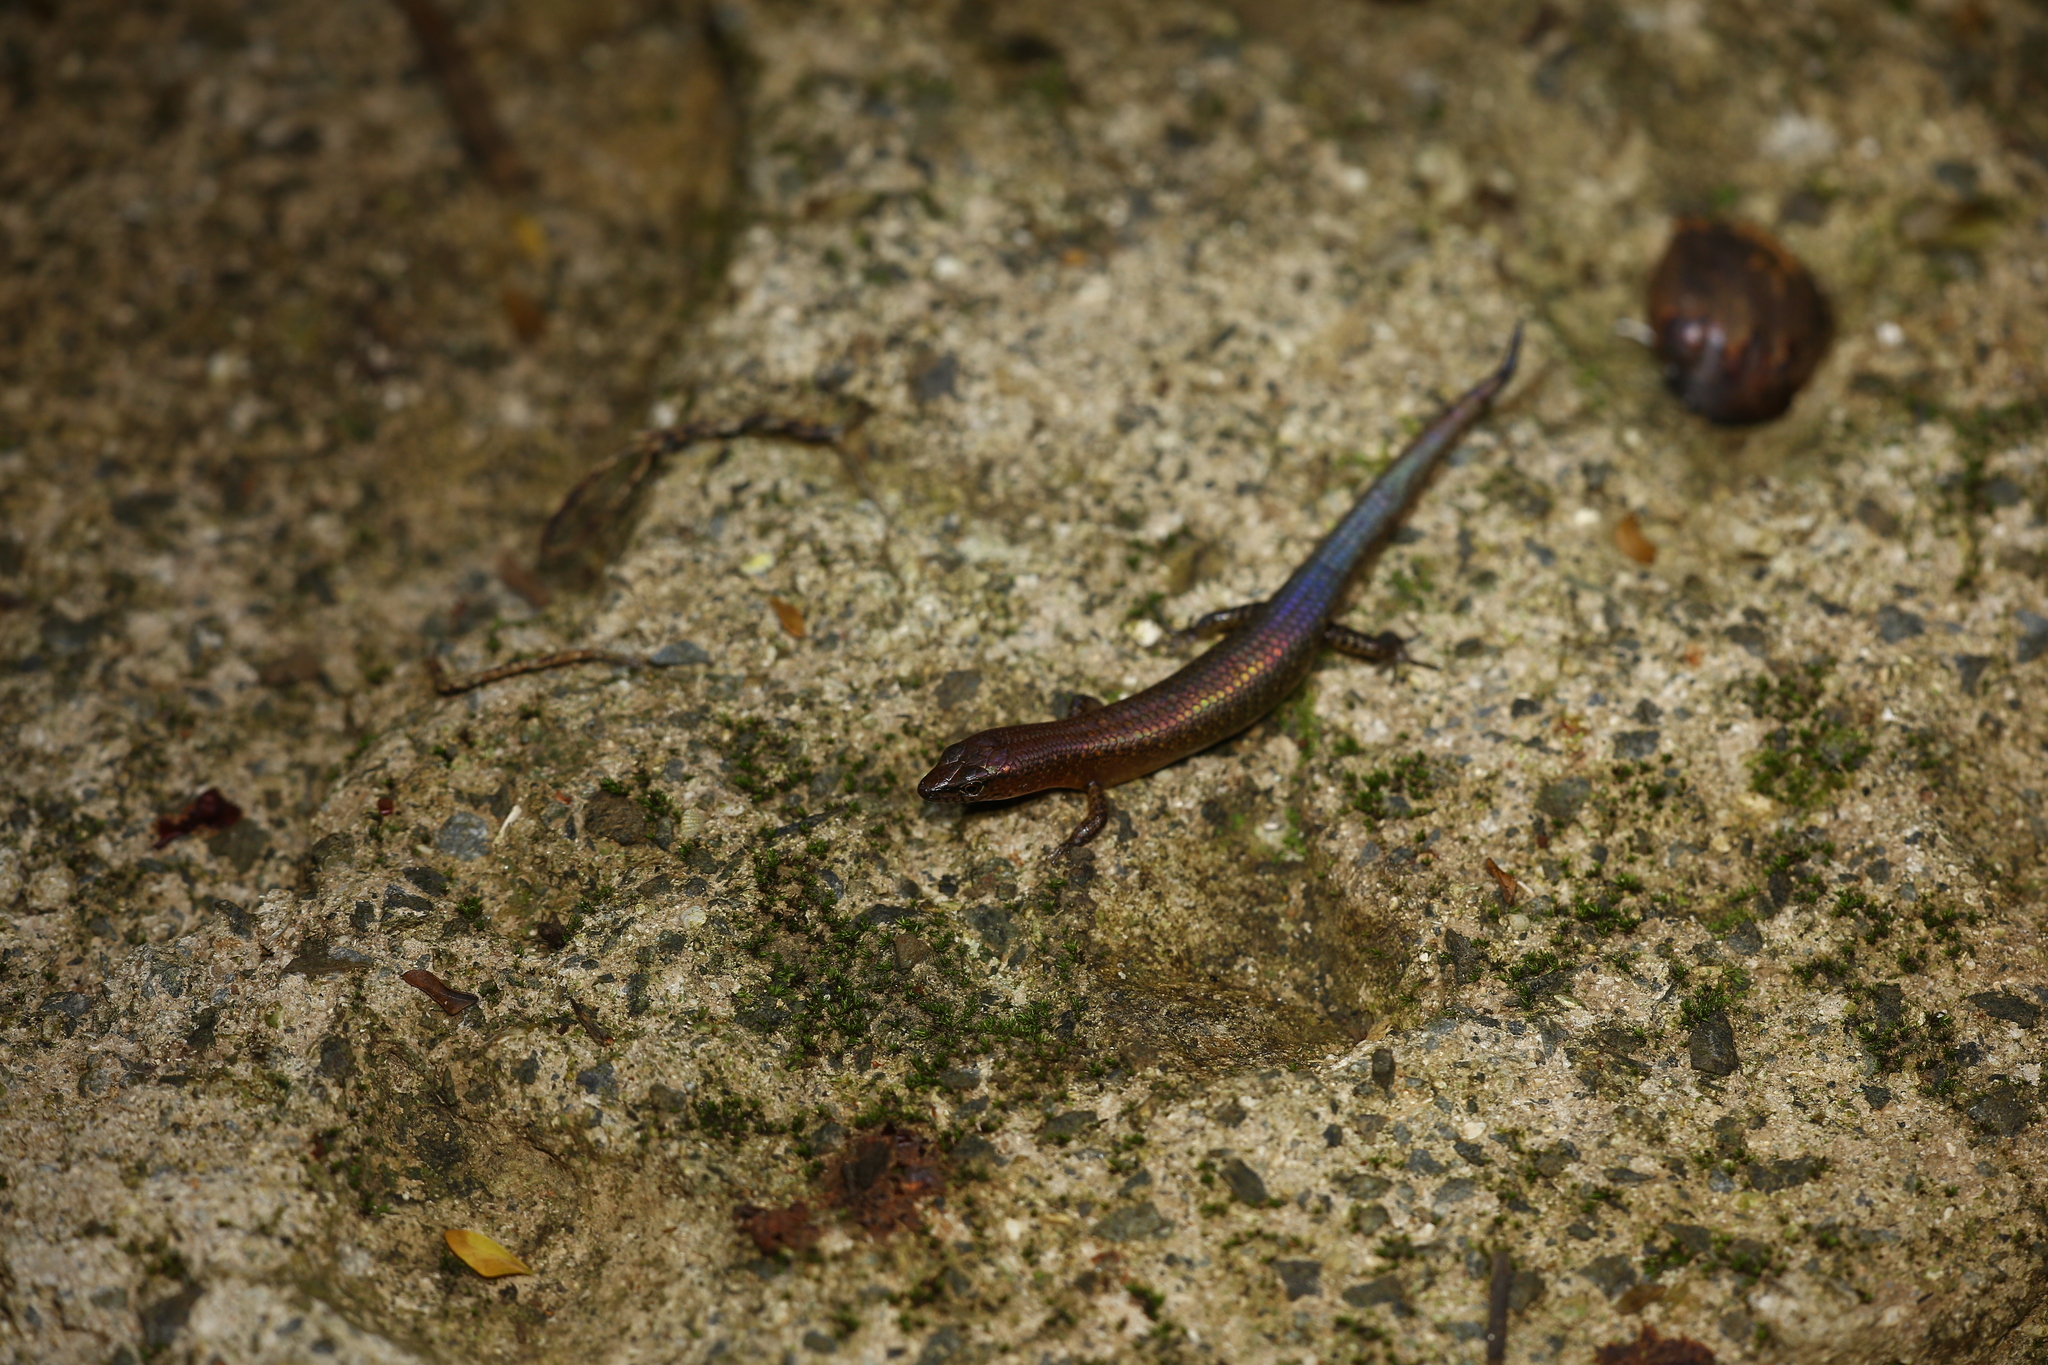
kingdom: Animalia
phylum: Chordata
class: Squamata
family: Scincidae
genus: Sigaloseps
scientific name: Sigaloseps deplanchei
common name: Deplanche's shiny skink
